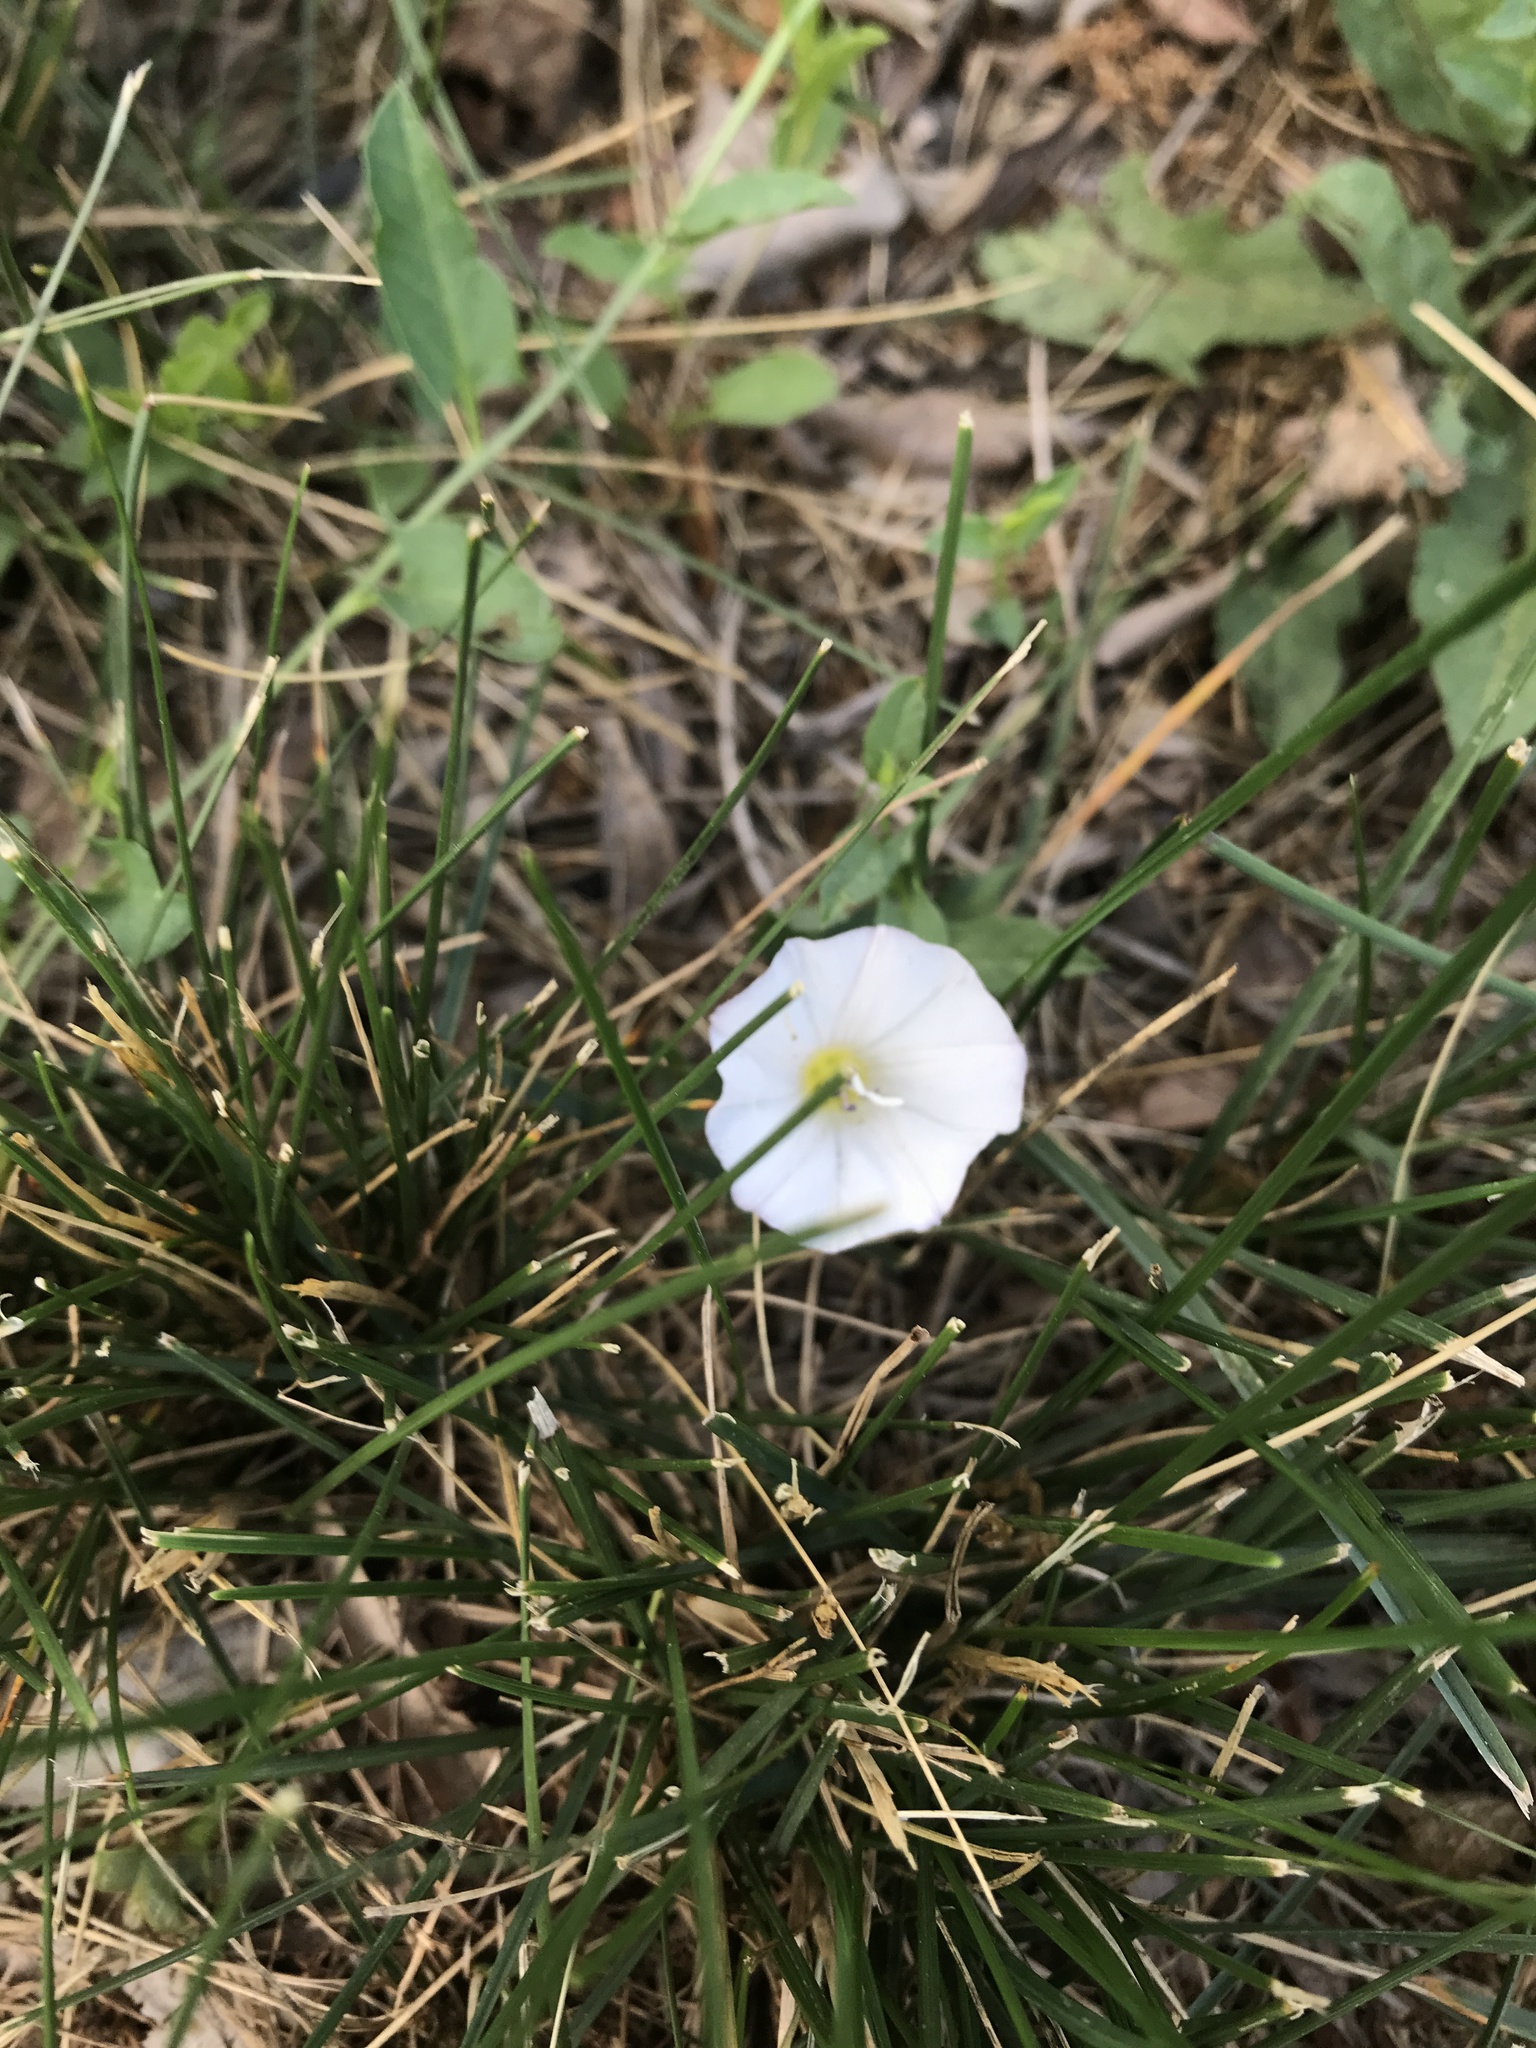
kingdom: Plantae
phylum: Tracheophyta
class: Magnoliopsida
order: Solanales
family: Convolvulaceae
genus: Convolvulus
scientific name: Convolvulus arvensis
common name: Field bindweed
